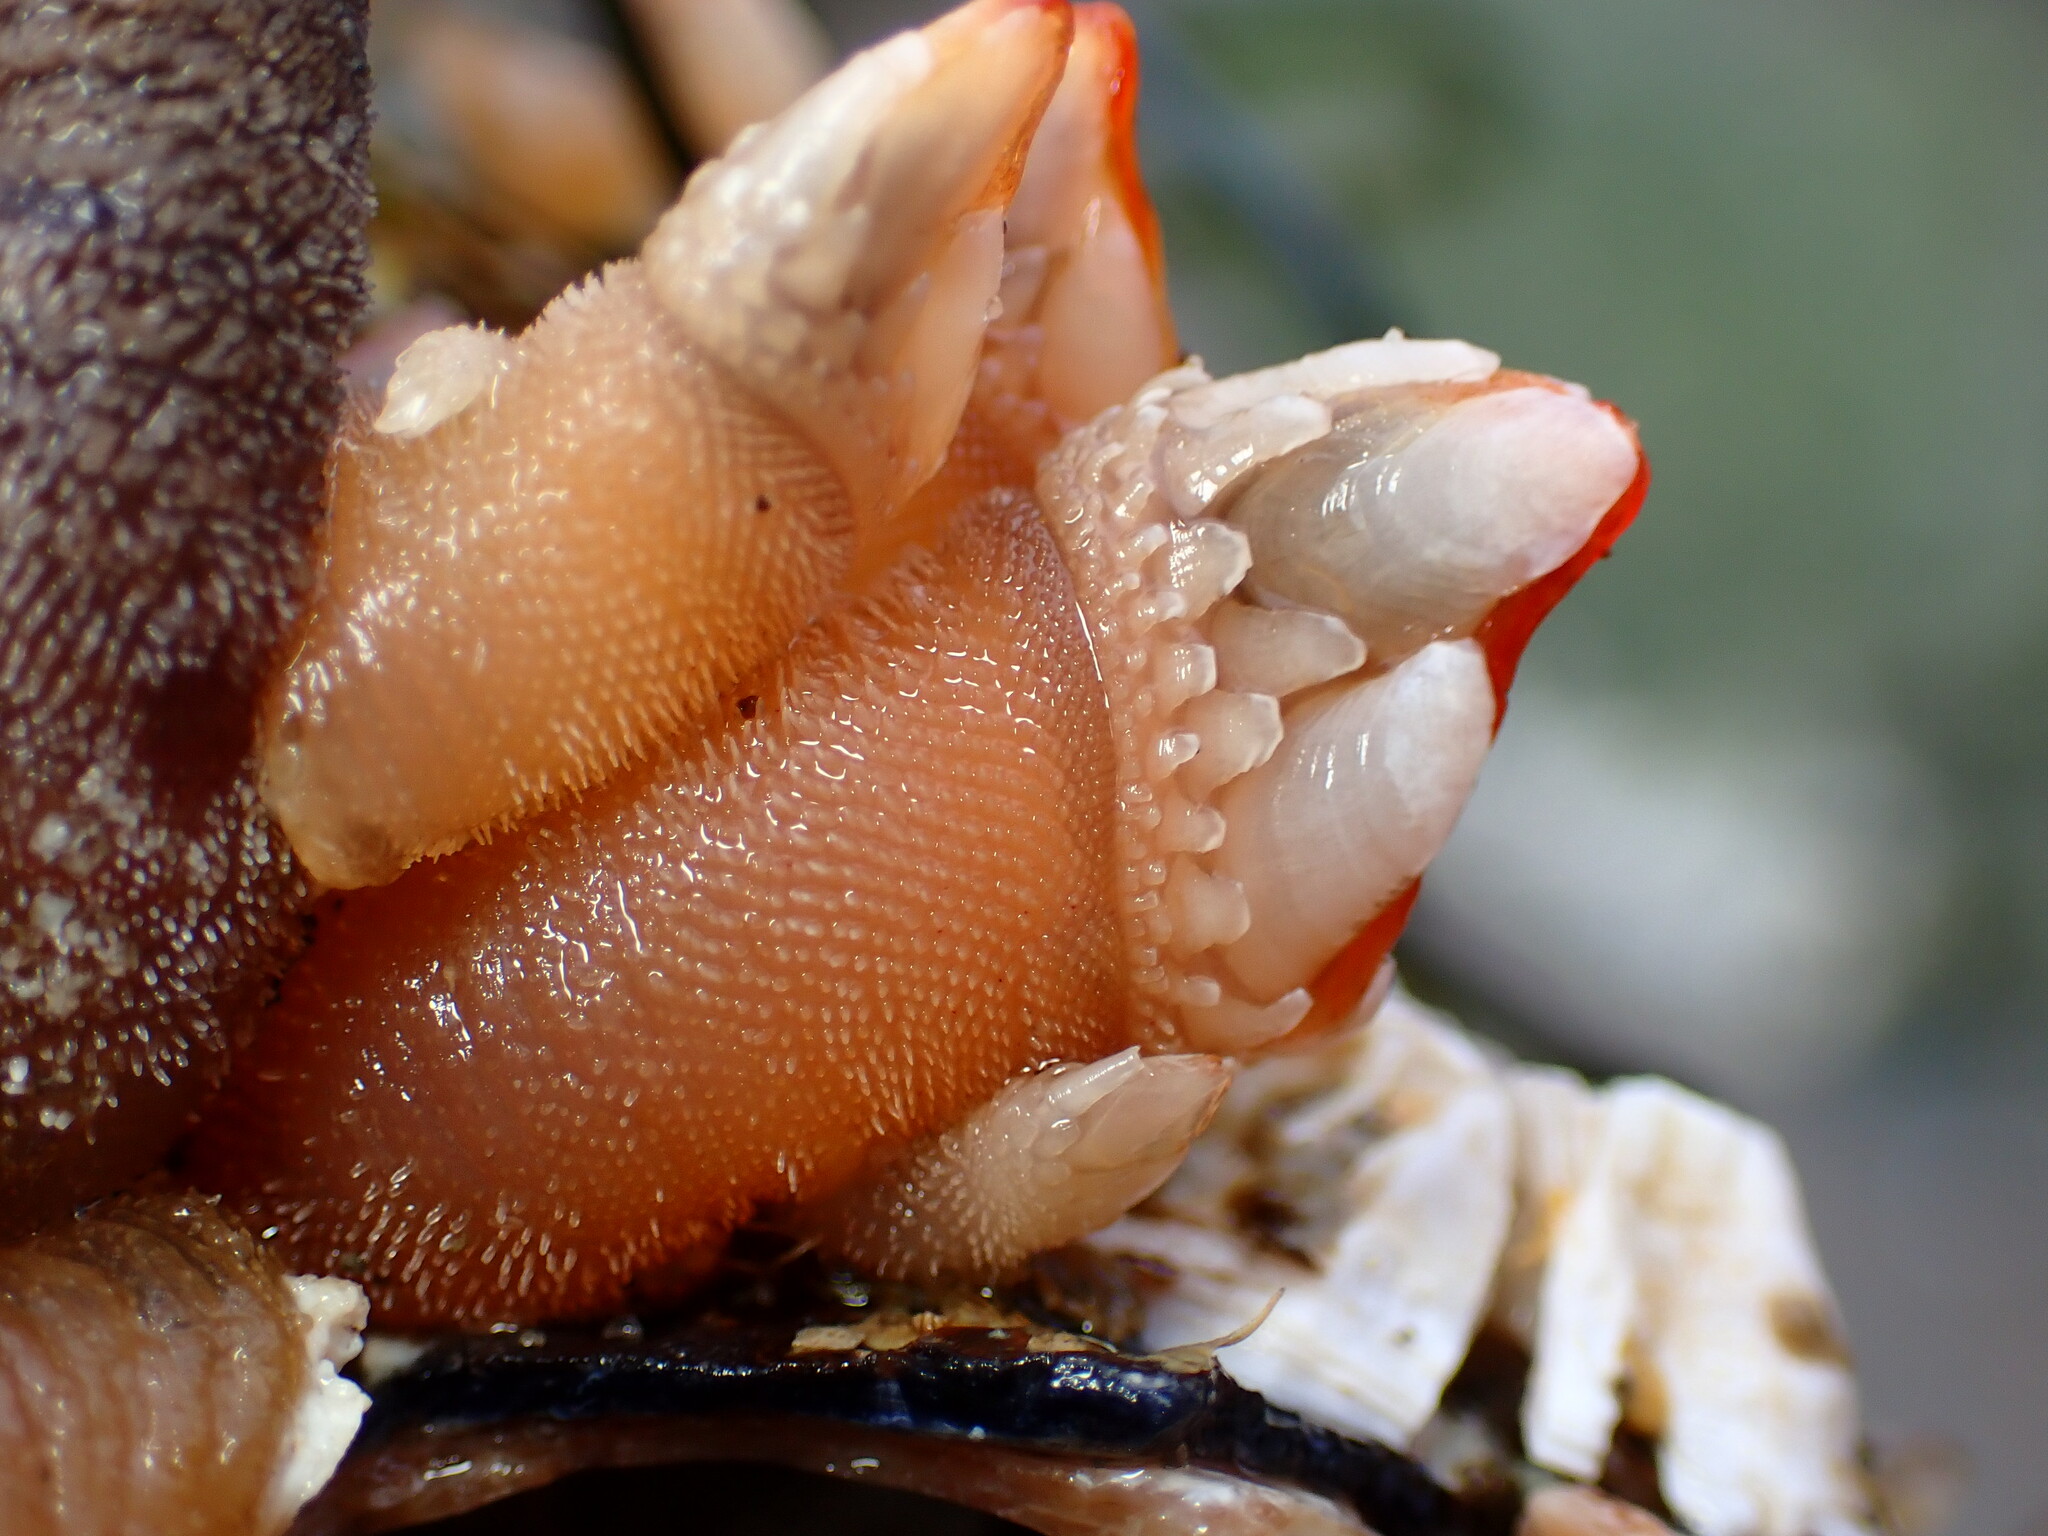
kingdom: Animalia
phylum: Arthropoda
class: Maxillopoda
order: Pedunculata
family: Pollicipedidae
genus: Pollicipes
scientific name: Pollicipes polymerus
